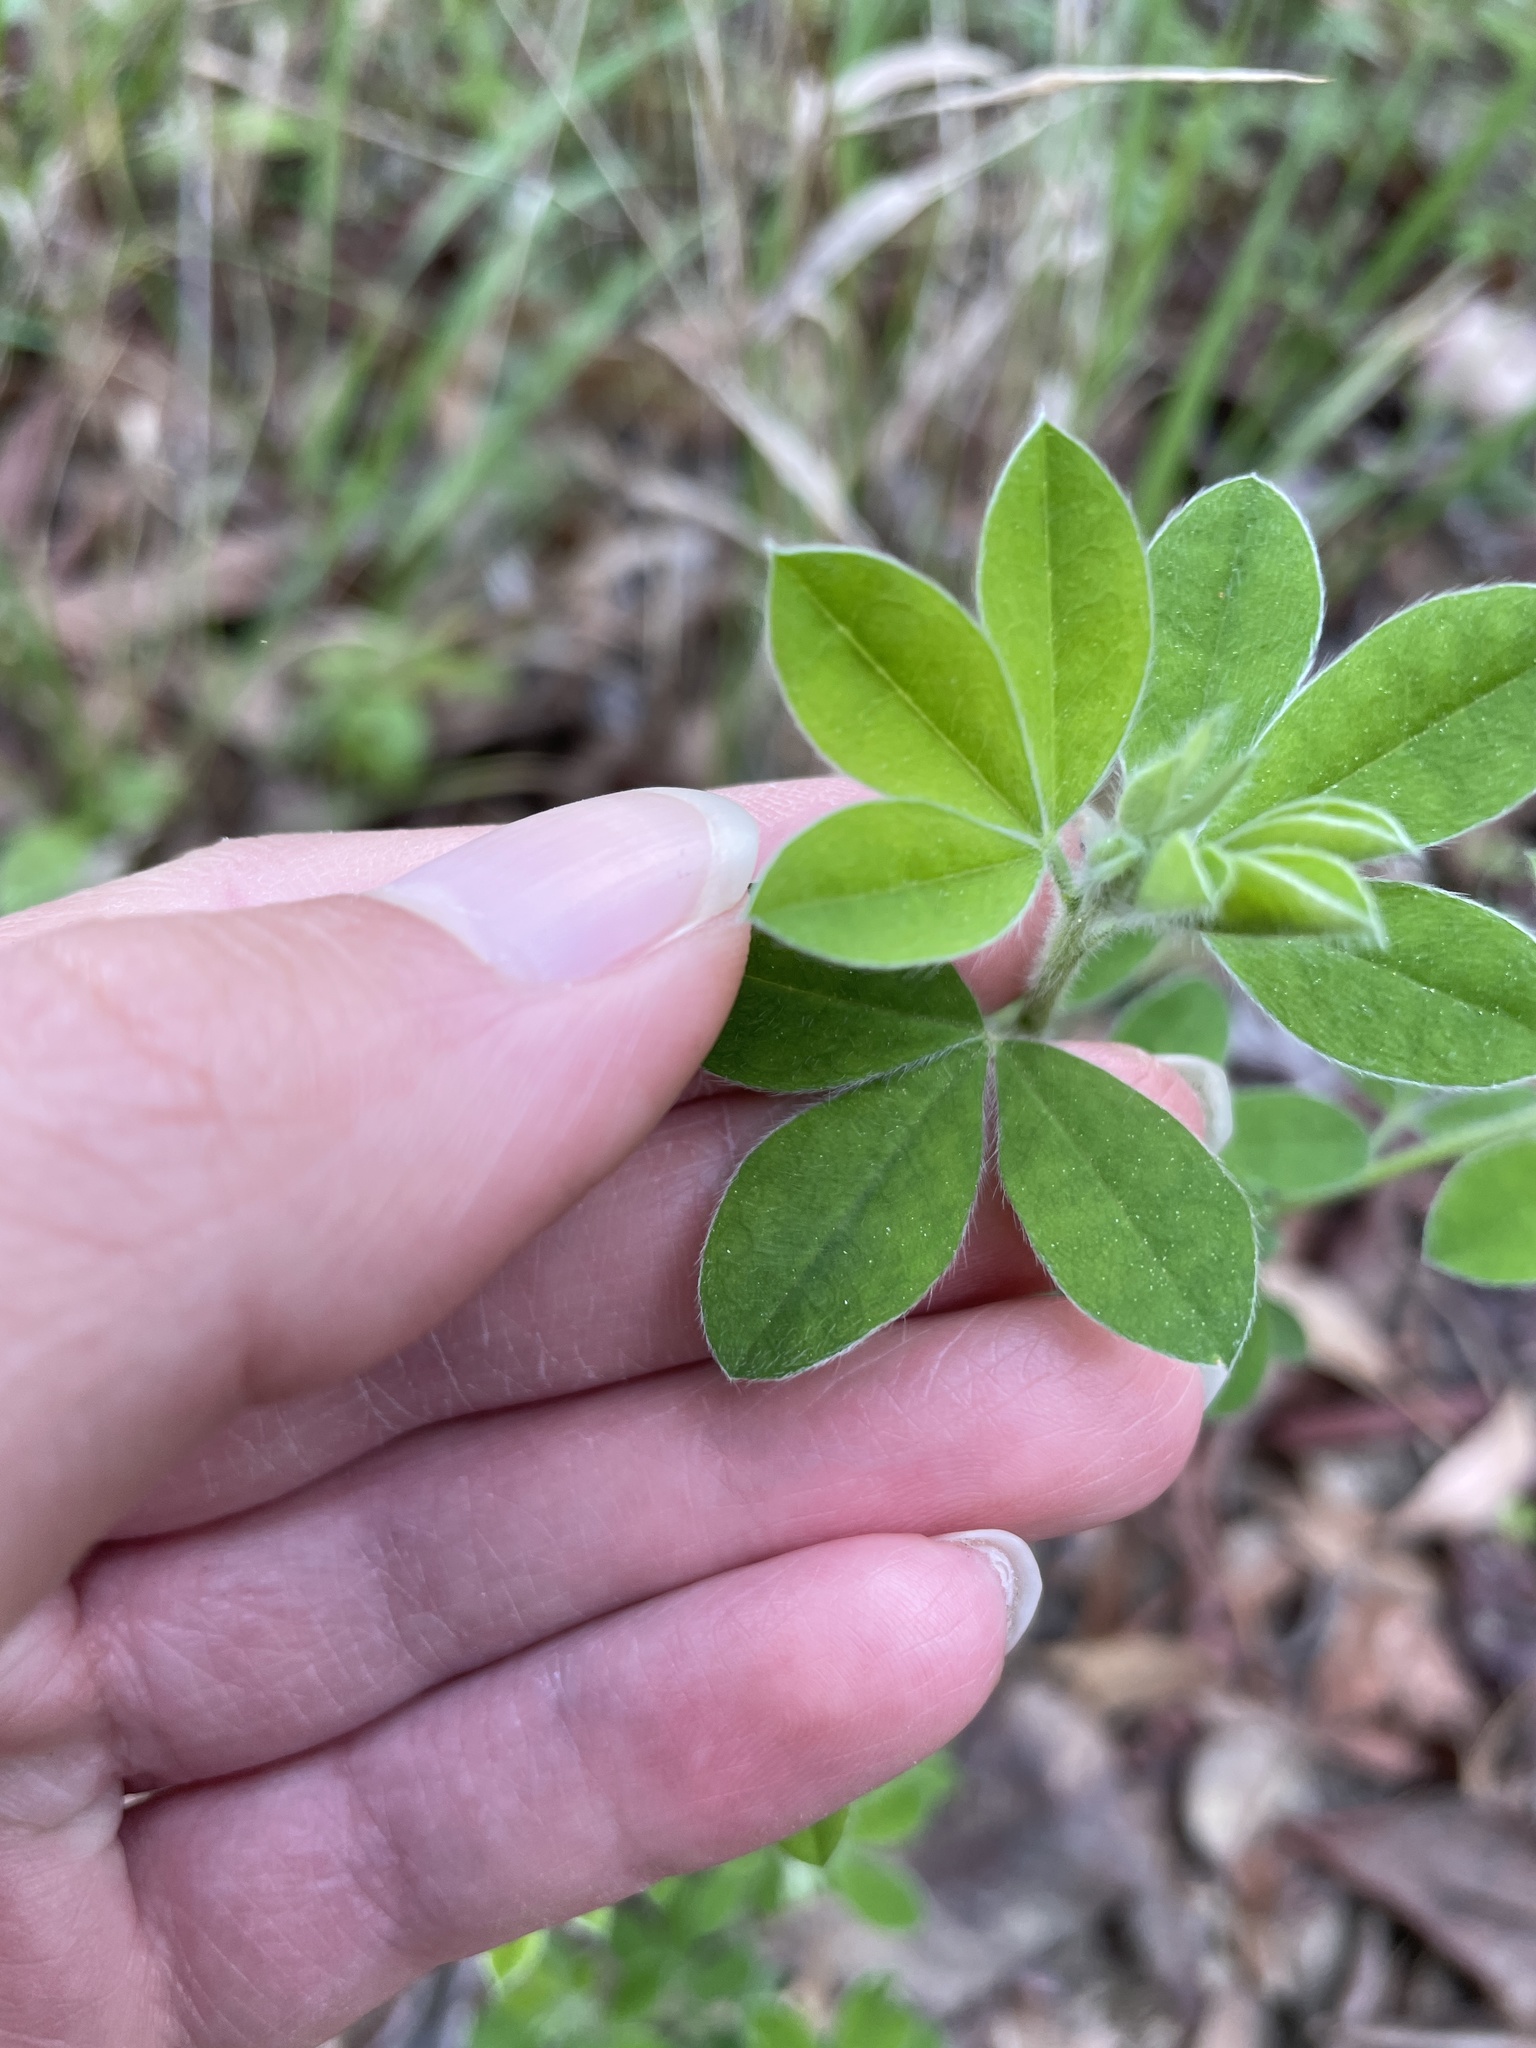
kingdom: Plantae
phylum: Tracheophyta
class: Magnoliopsida
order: Fabales
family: Fabaceae
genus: Genista
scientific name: Genista monspessulana
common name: Montpellier broom
